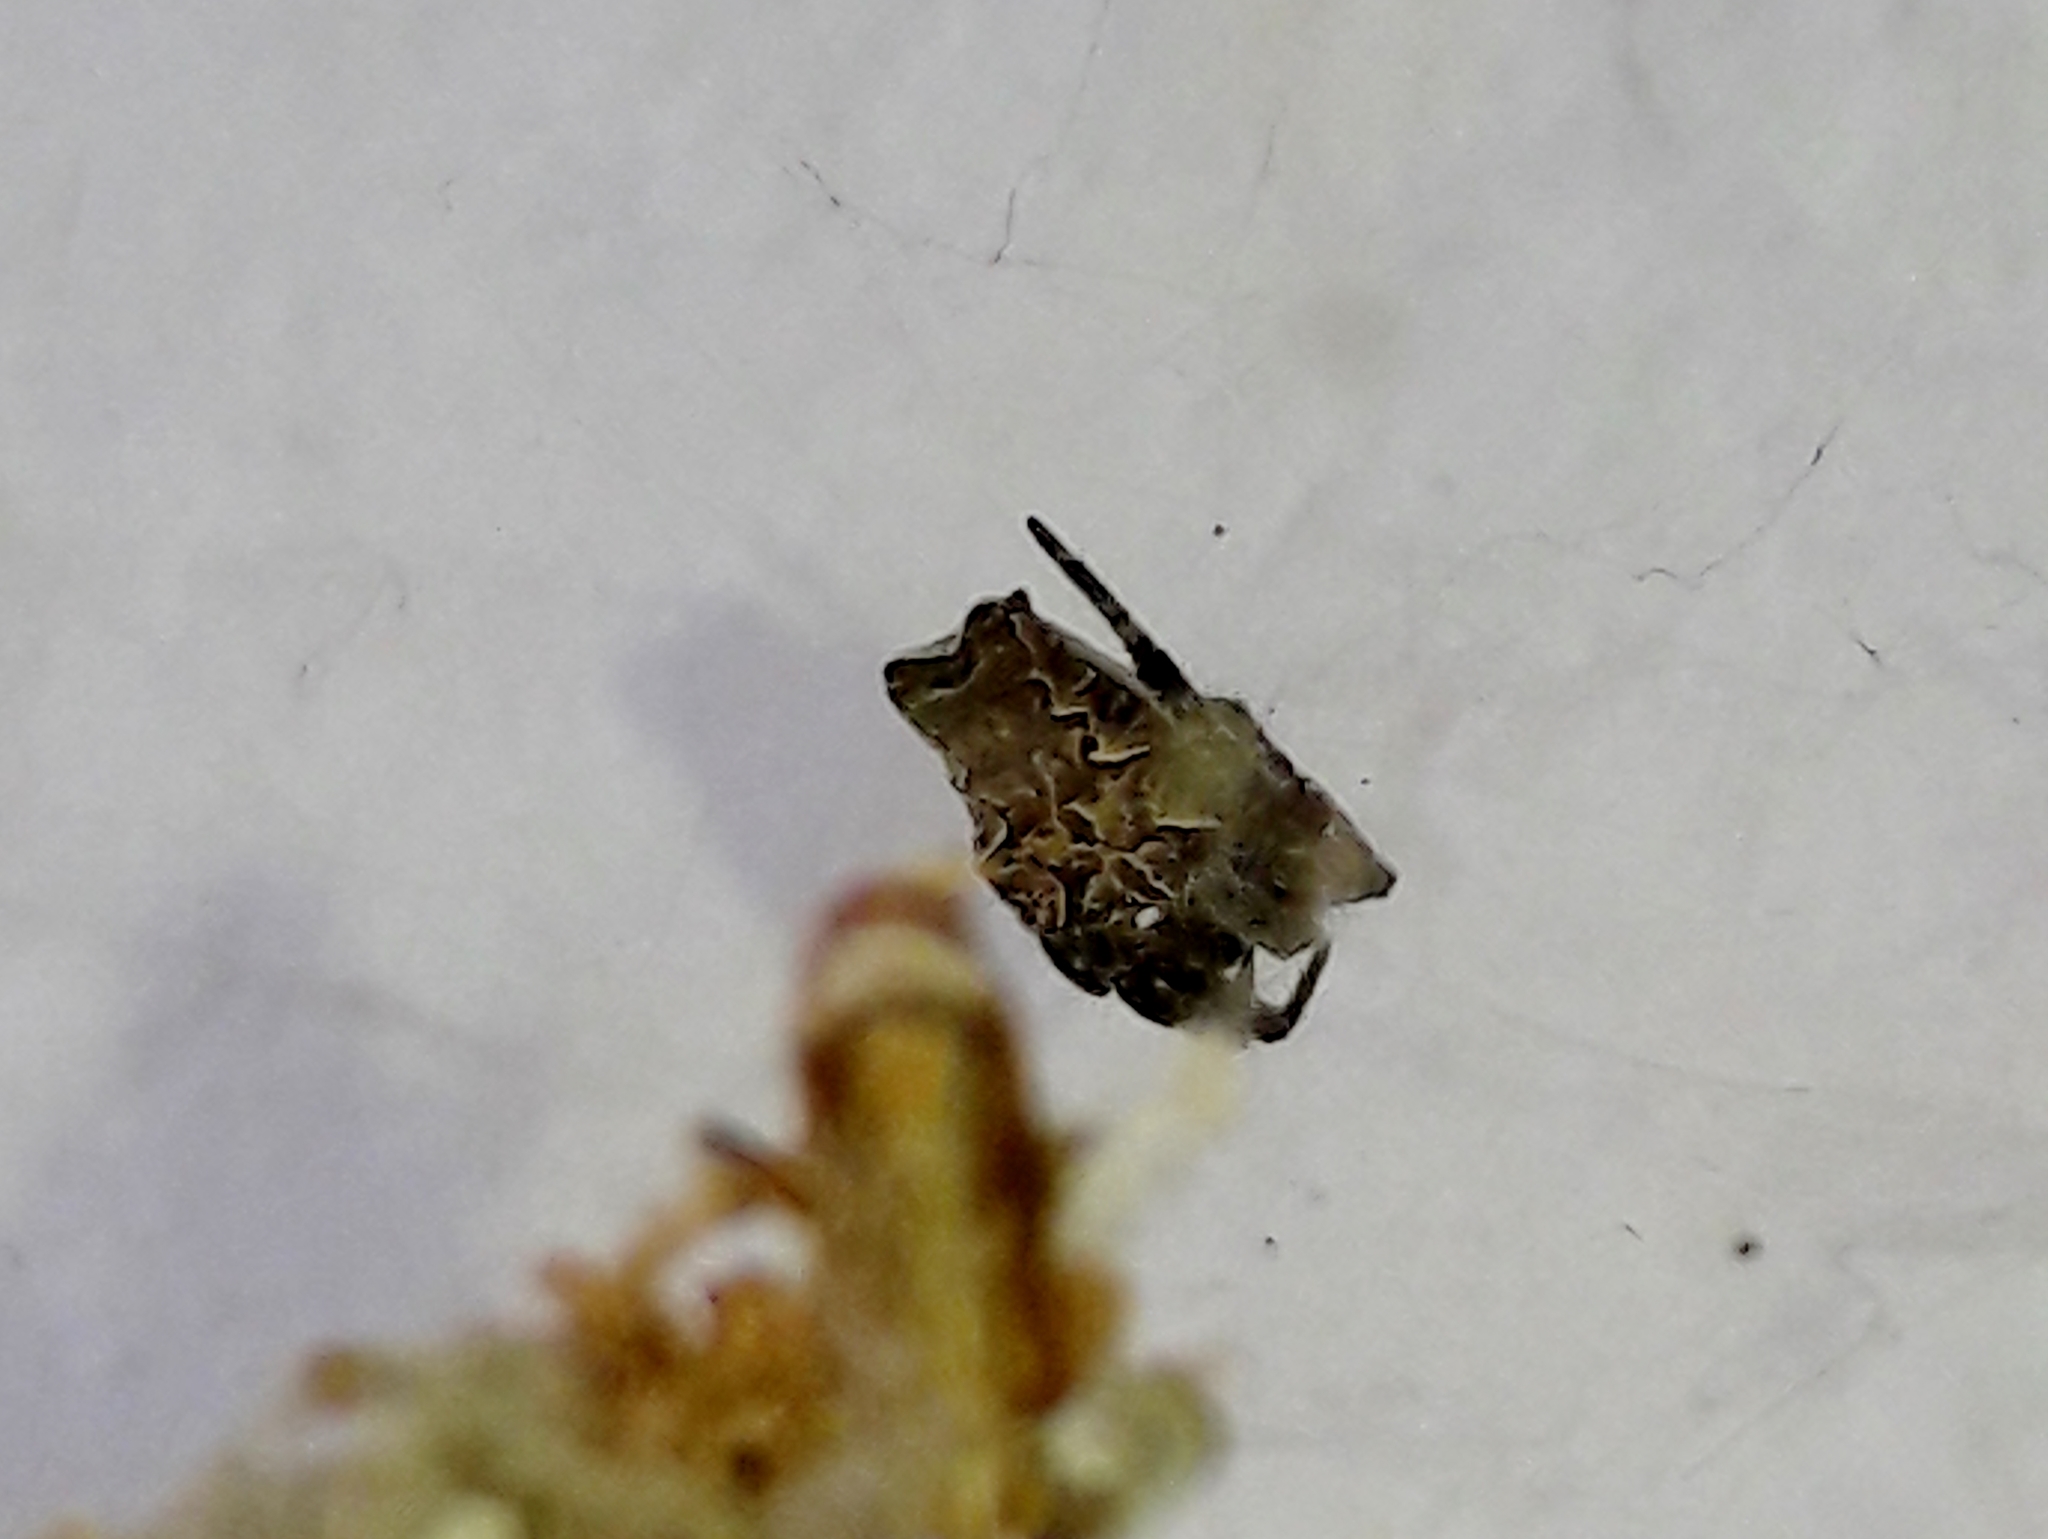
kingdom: Animalia
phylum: Arthropoda
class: Arachnida
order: Araneae
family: Araneidae
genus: Cyrtophora
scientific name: Cyrtophora citricola
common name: Orb weavers
